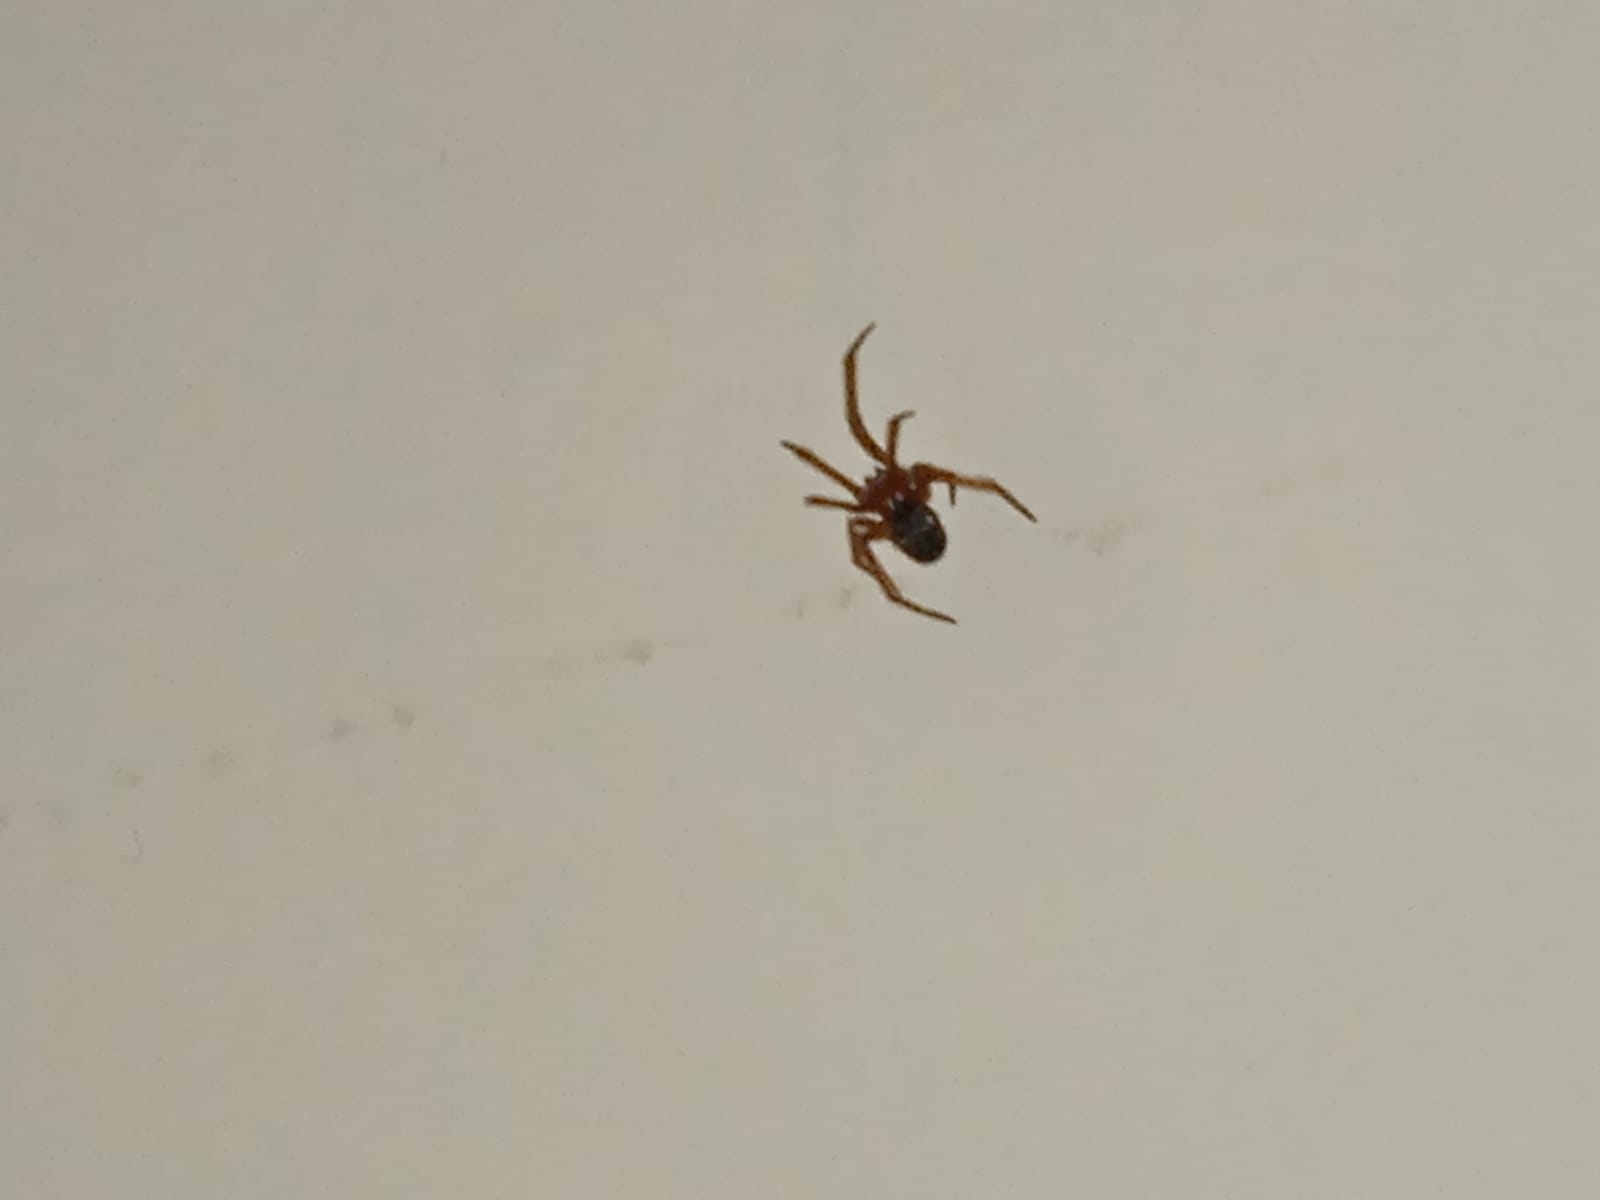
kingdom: Animalia
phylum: Arthropoda
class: Arachnida
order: Araneae
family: Theridiidae
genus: Nesticodes
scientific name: Nesticodes rufipes
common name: Cobweb spiders
